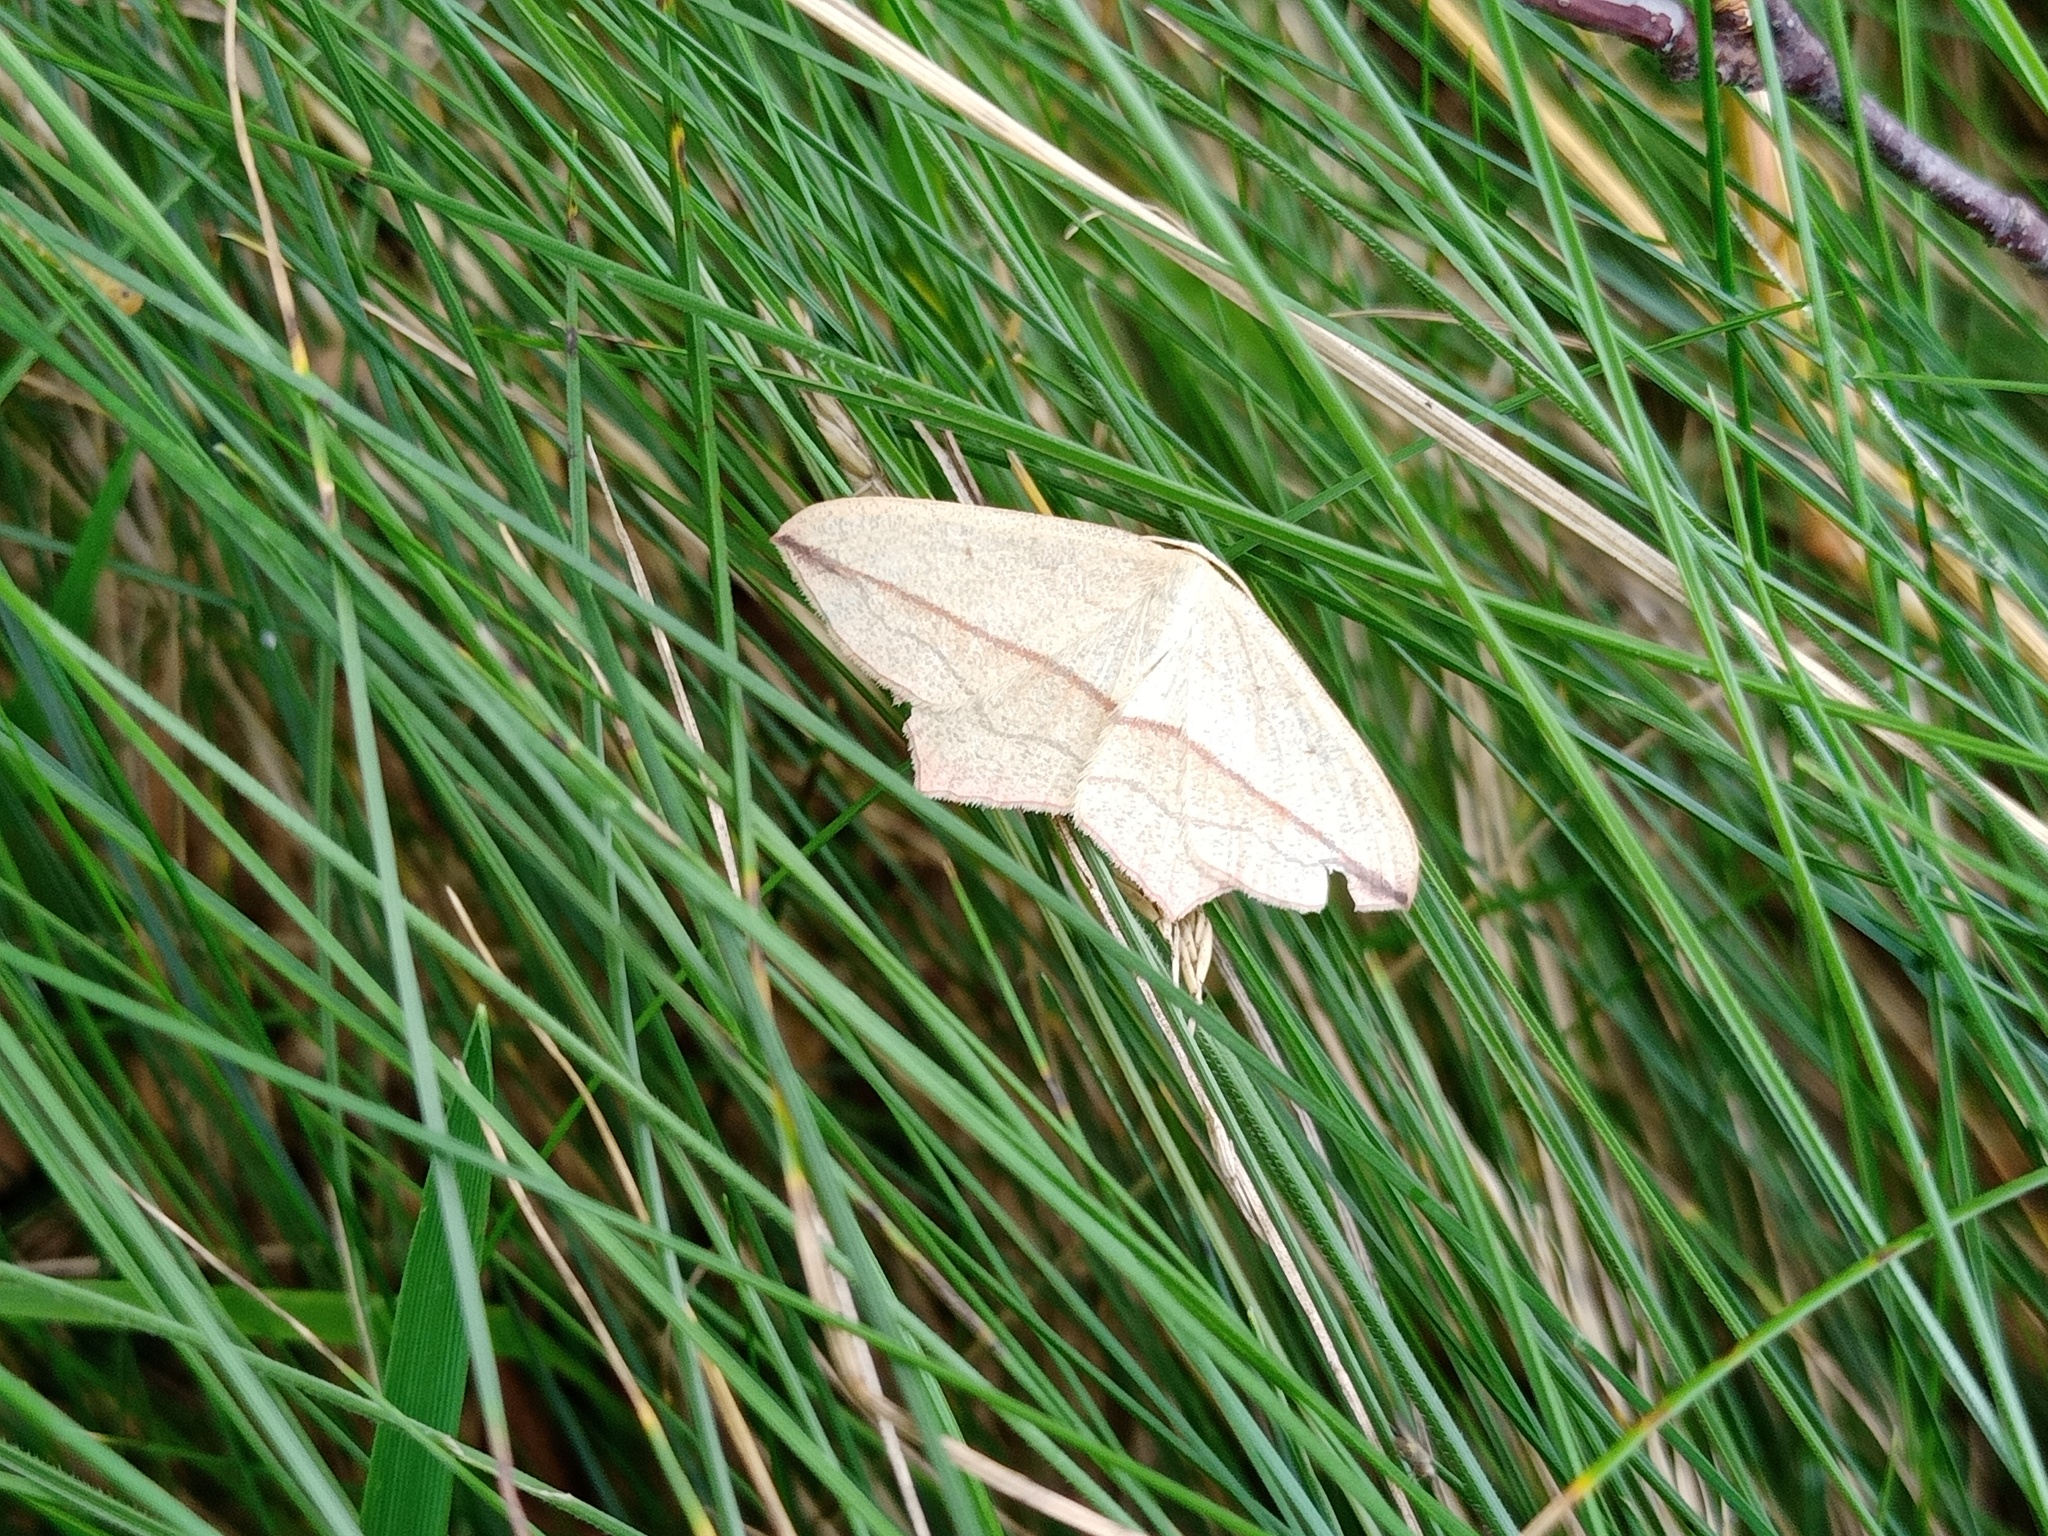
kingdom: Animalia
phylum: Arthropoda
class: Insecta
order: Lepidoptera
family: Geometridae
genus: Timandra
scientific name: Timandra comae
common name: Blood-vein
